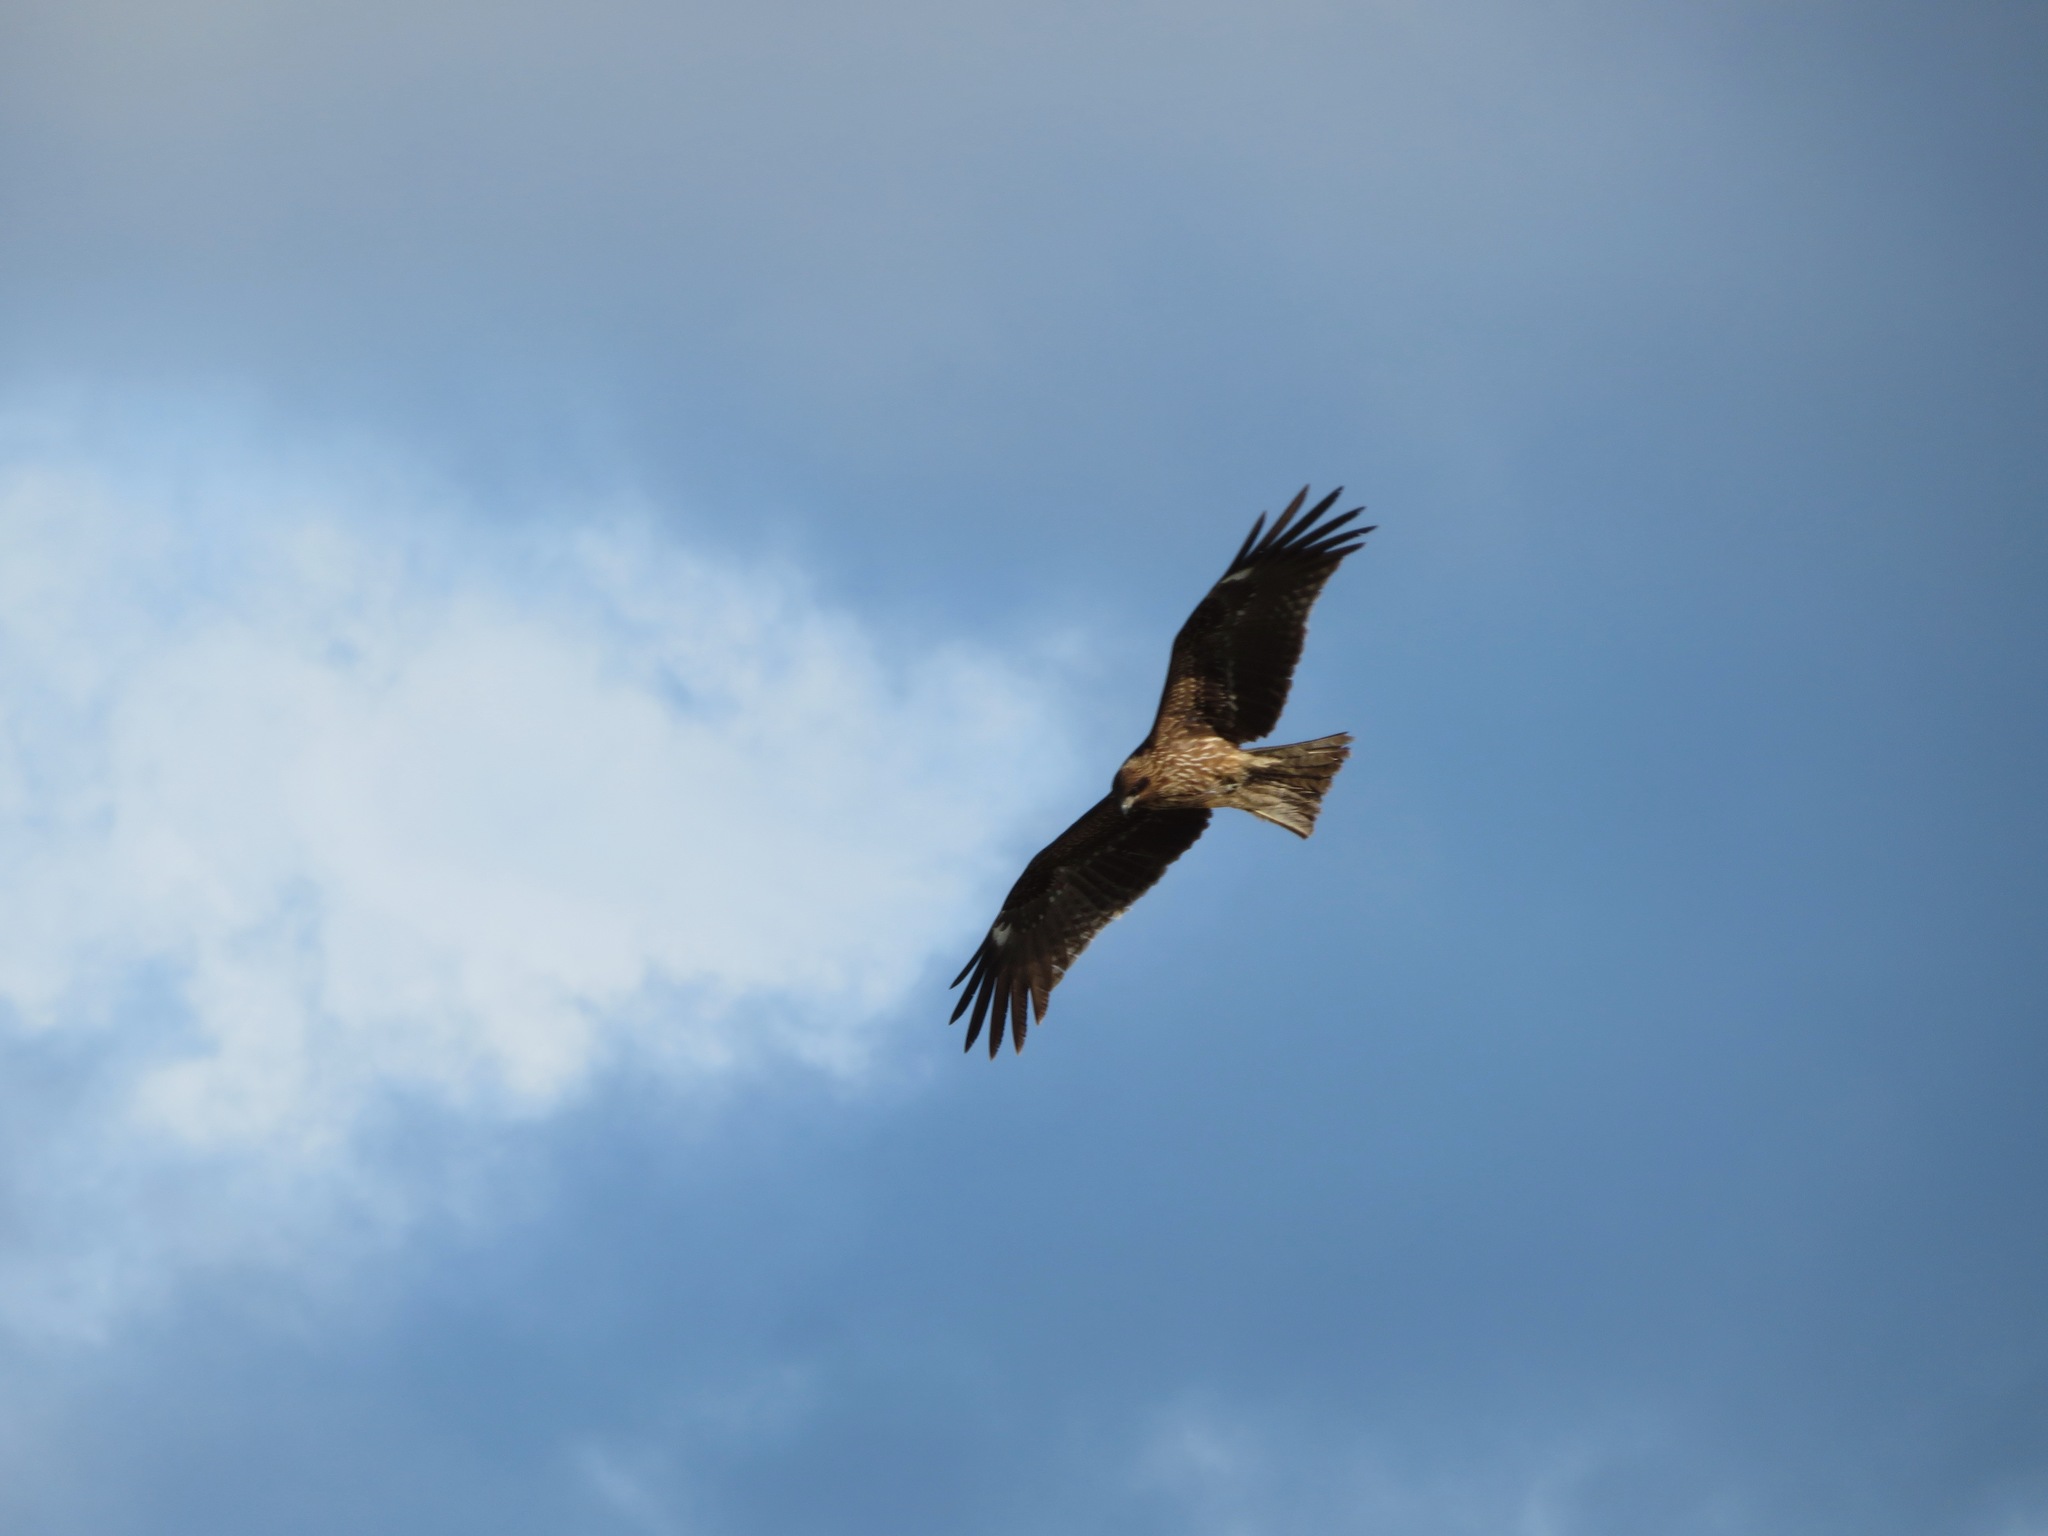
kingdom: Animalia
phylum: Chordata
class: Aves
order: Accipitriformes
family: Accipitridae
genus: Milvus
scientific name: Milvus migrans
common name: Black kite
